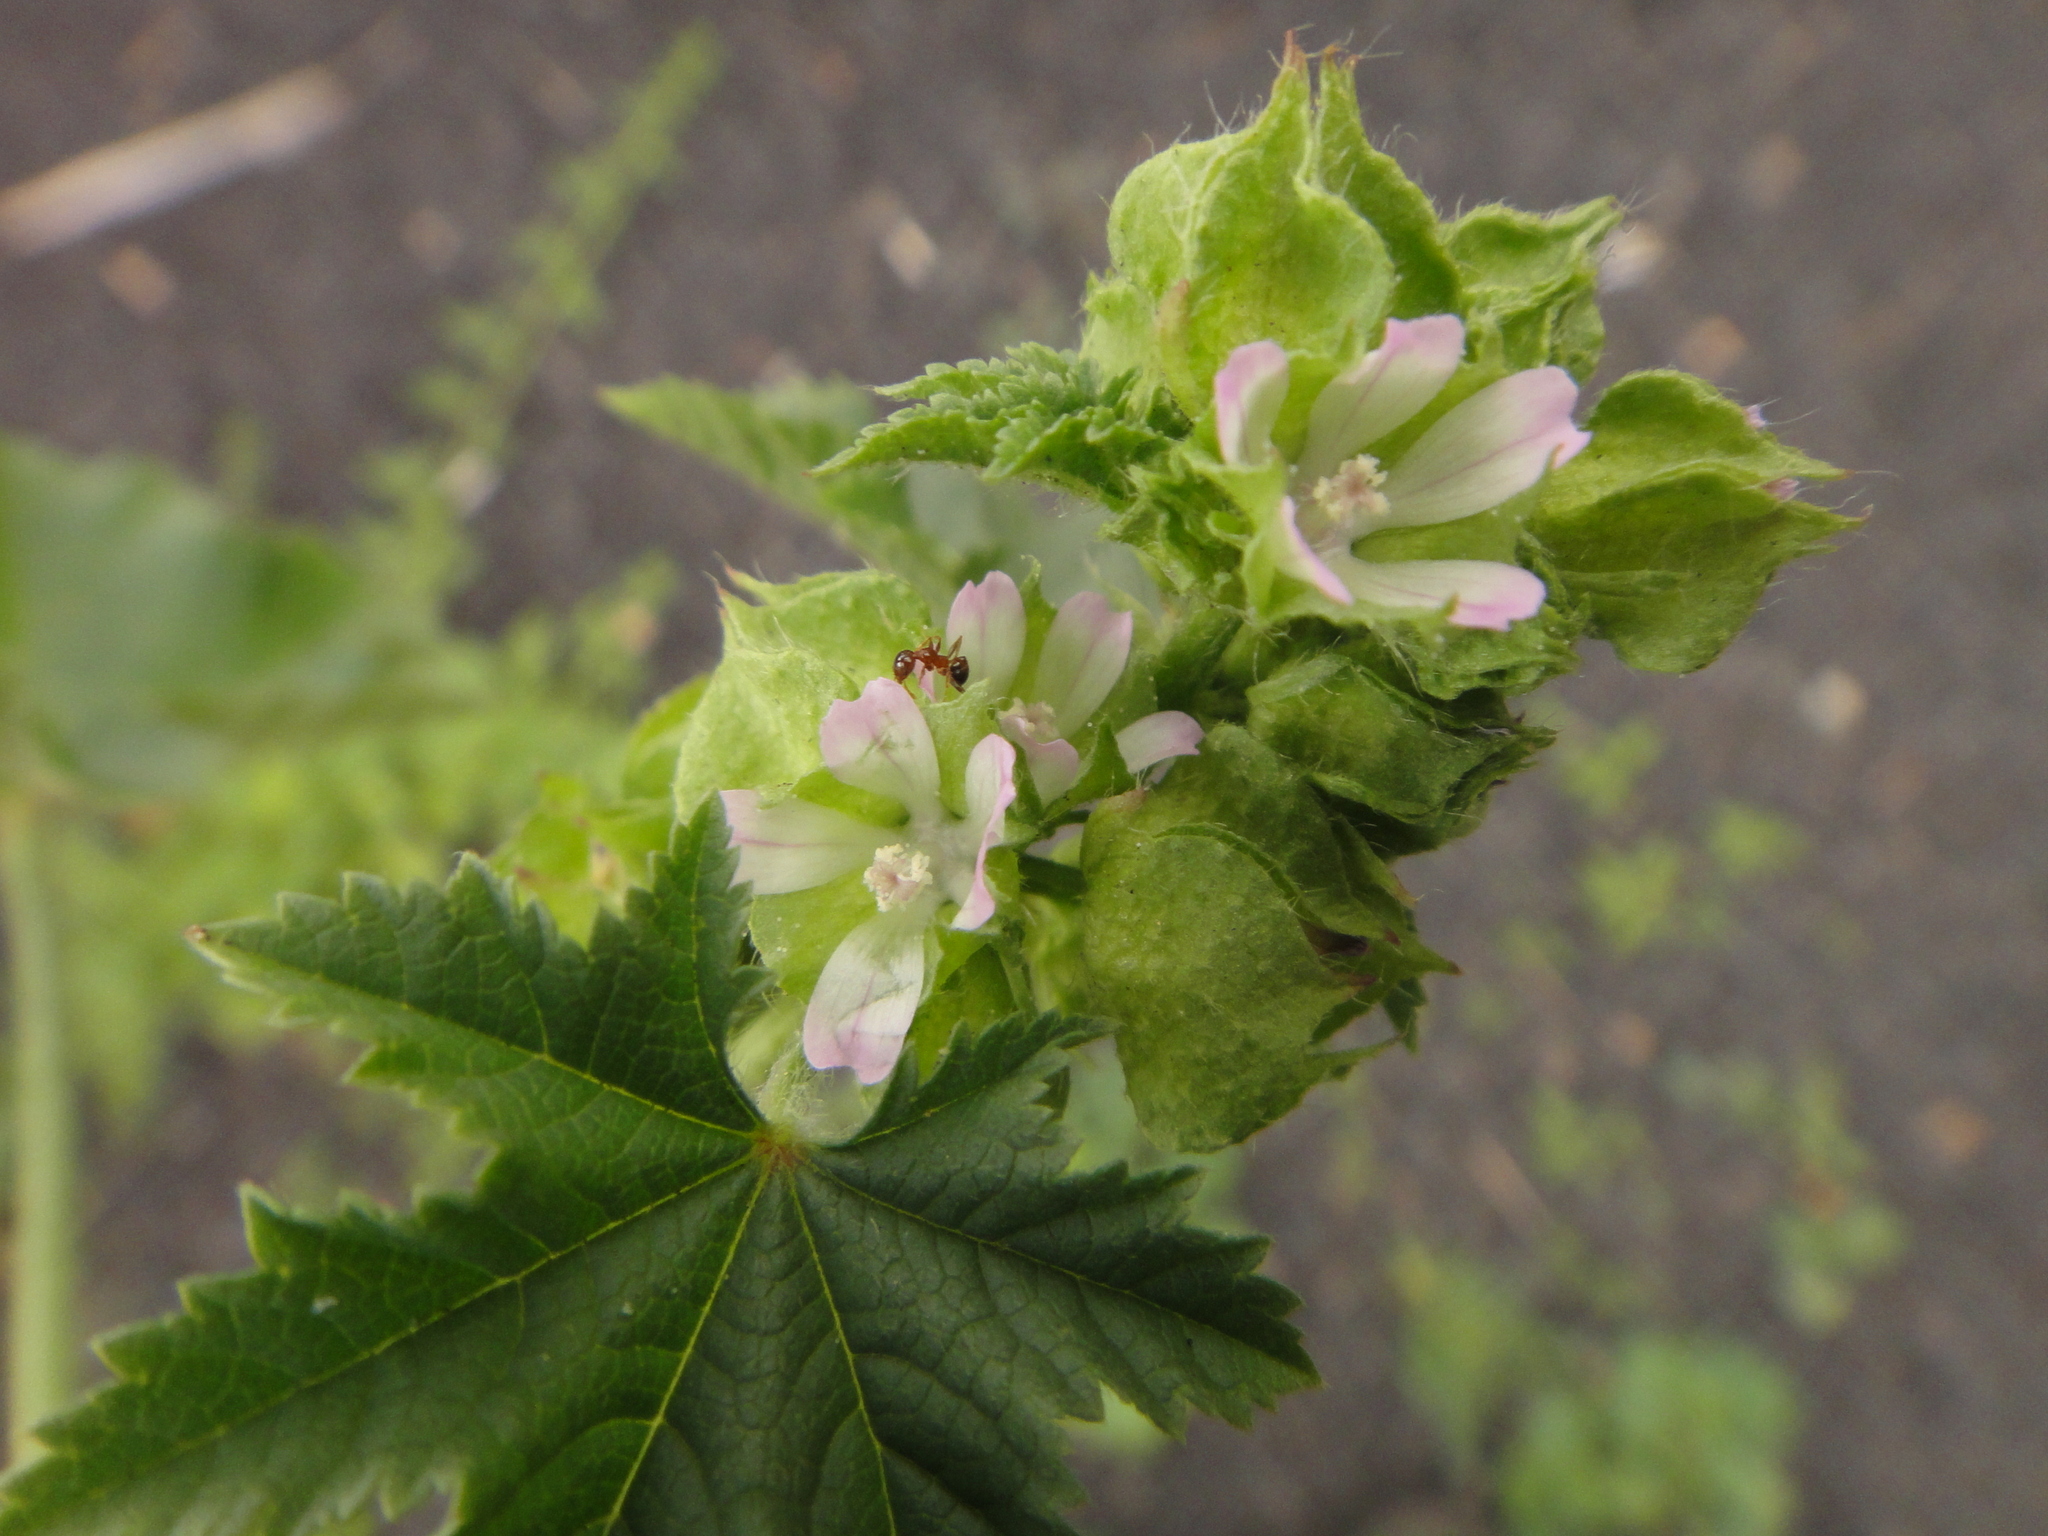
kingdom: Plantae
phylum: Tracheophyta
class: Magnoliopsida
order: Malvales
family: Malvaceae
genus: Malva
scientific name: Malva parviflora
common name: Least mallow
